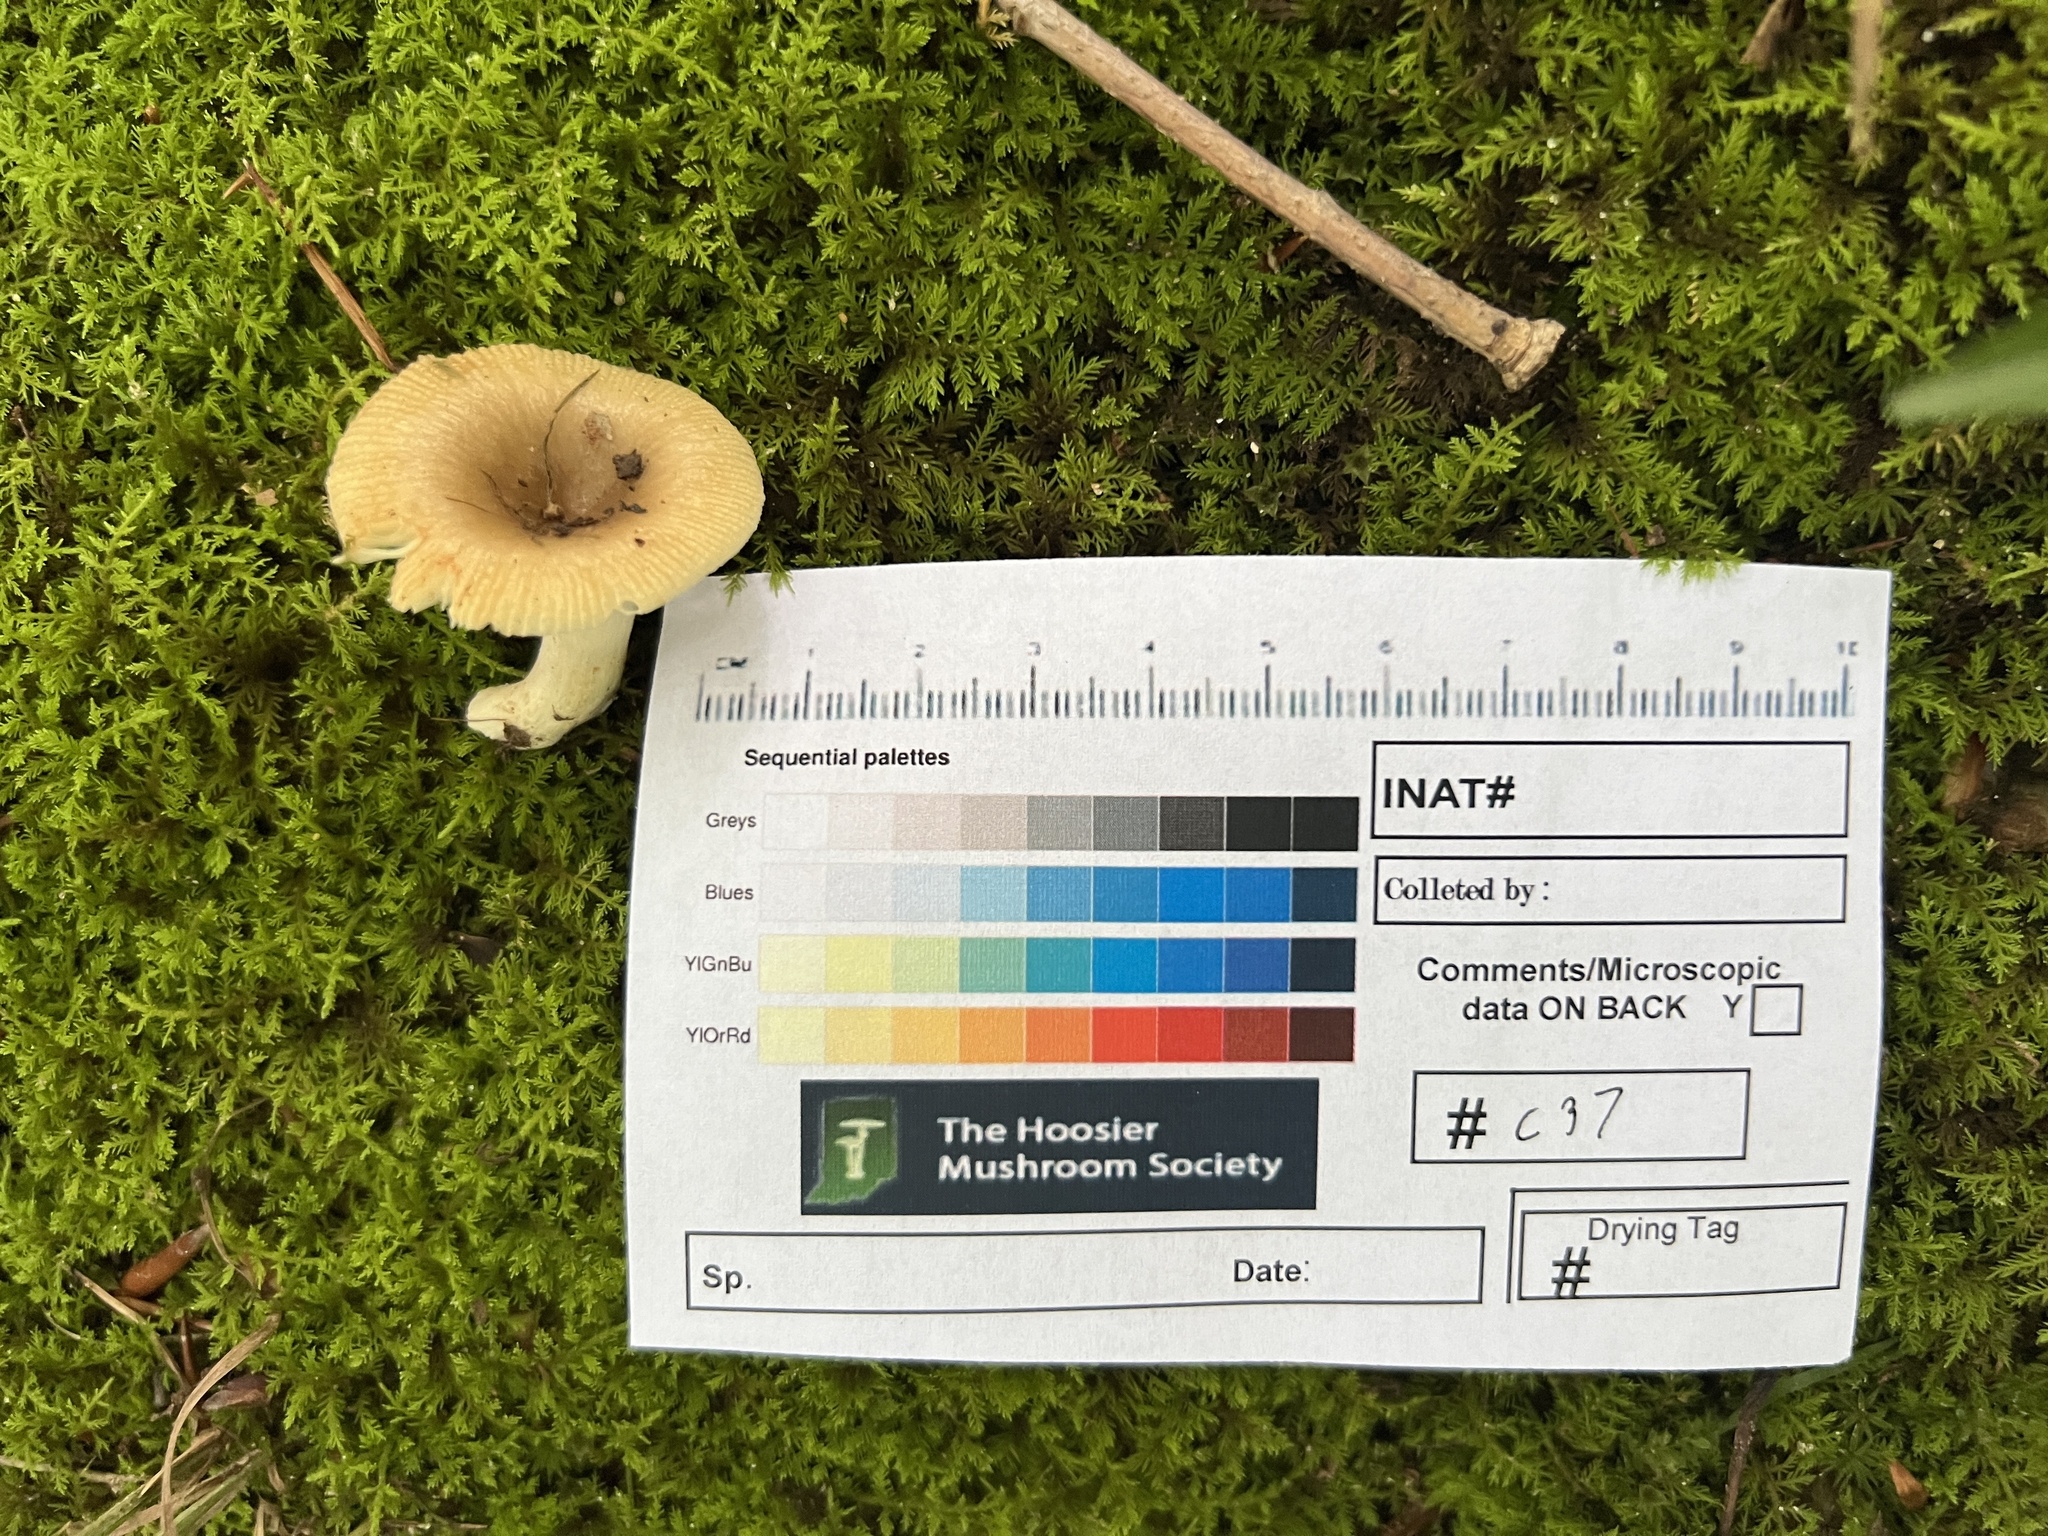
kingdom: Fungi
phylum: Basidiomycota
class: Agaricomycetes
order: Russulales
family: Russulaceae
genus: Russula
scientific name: Russula amerorecondita
